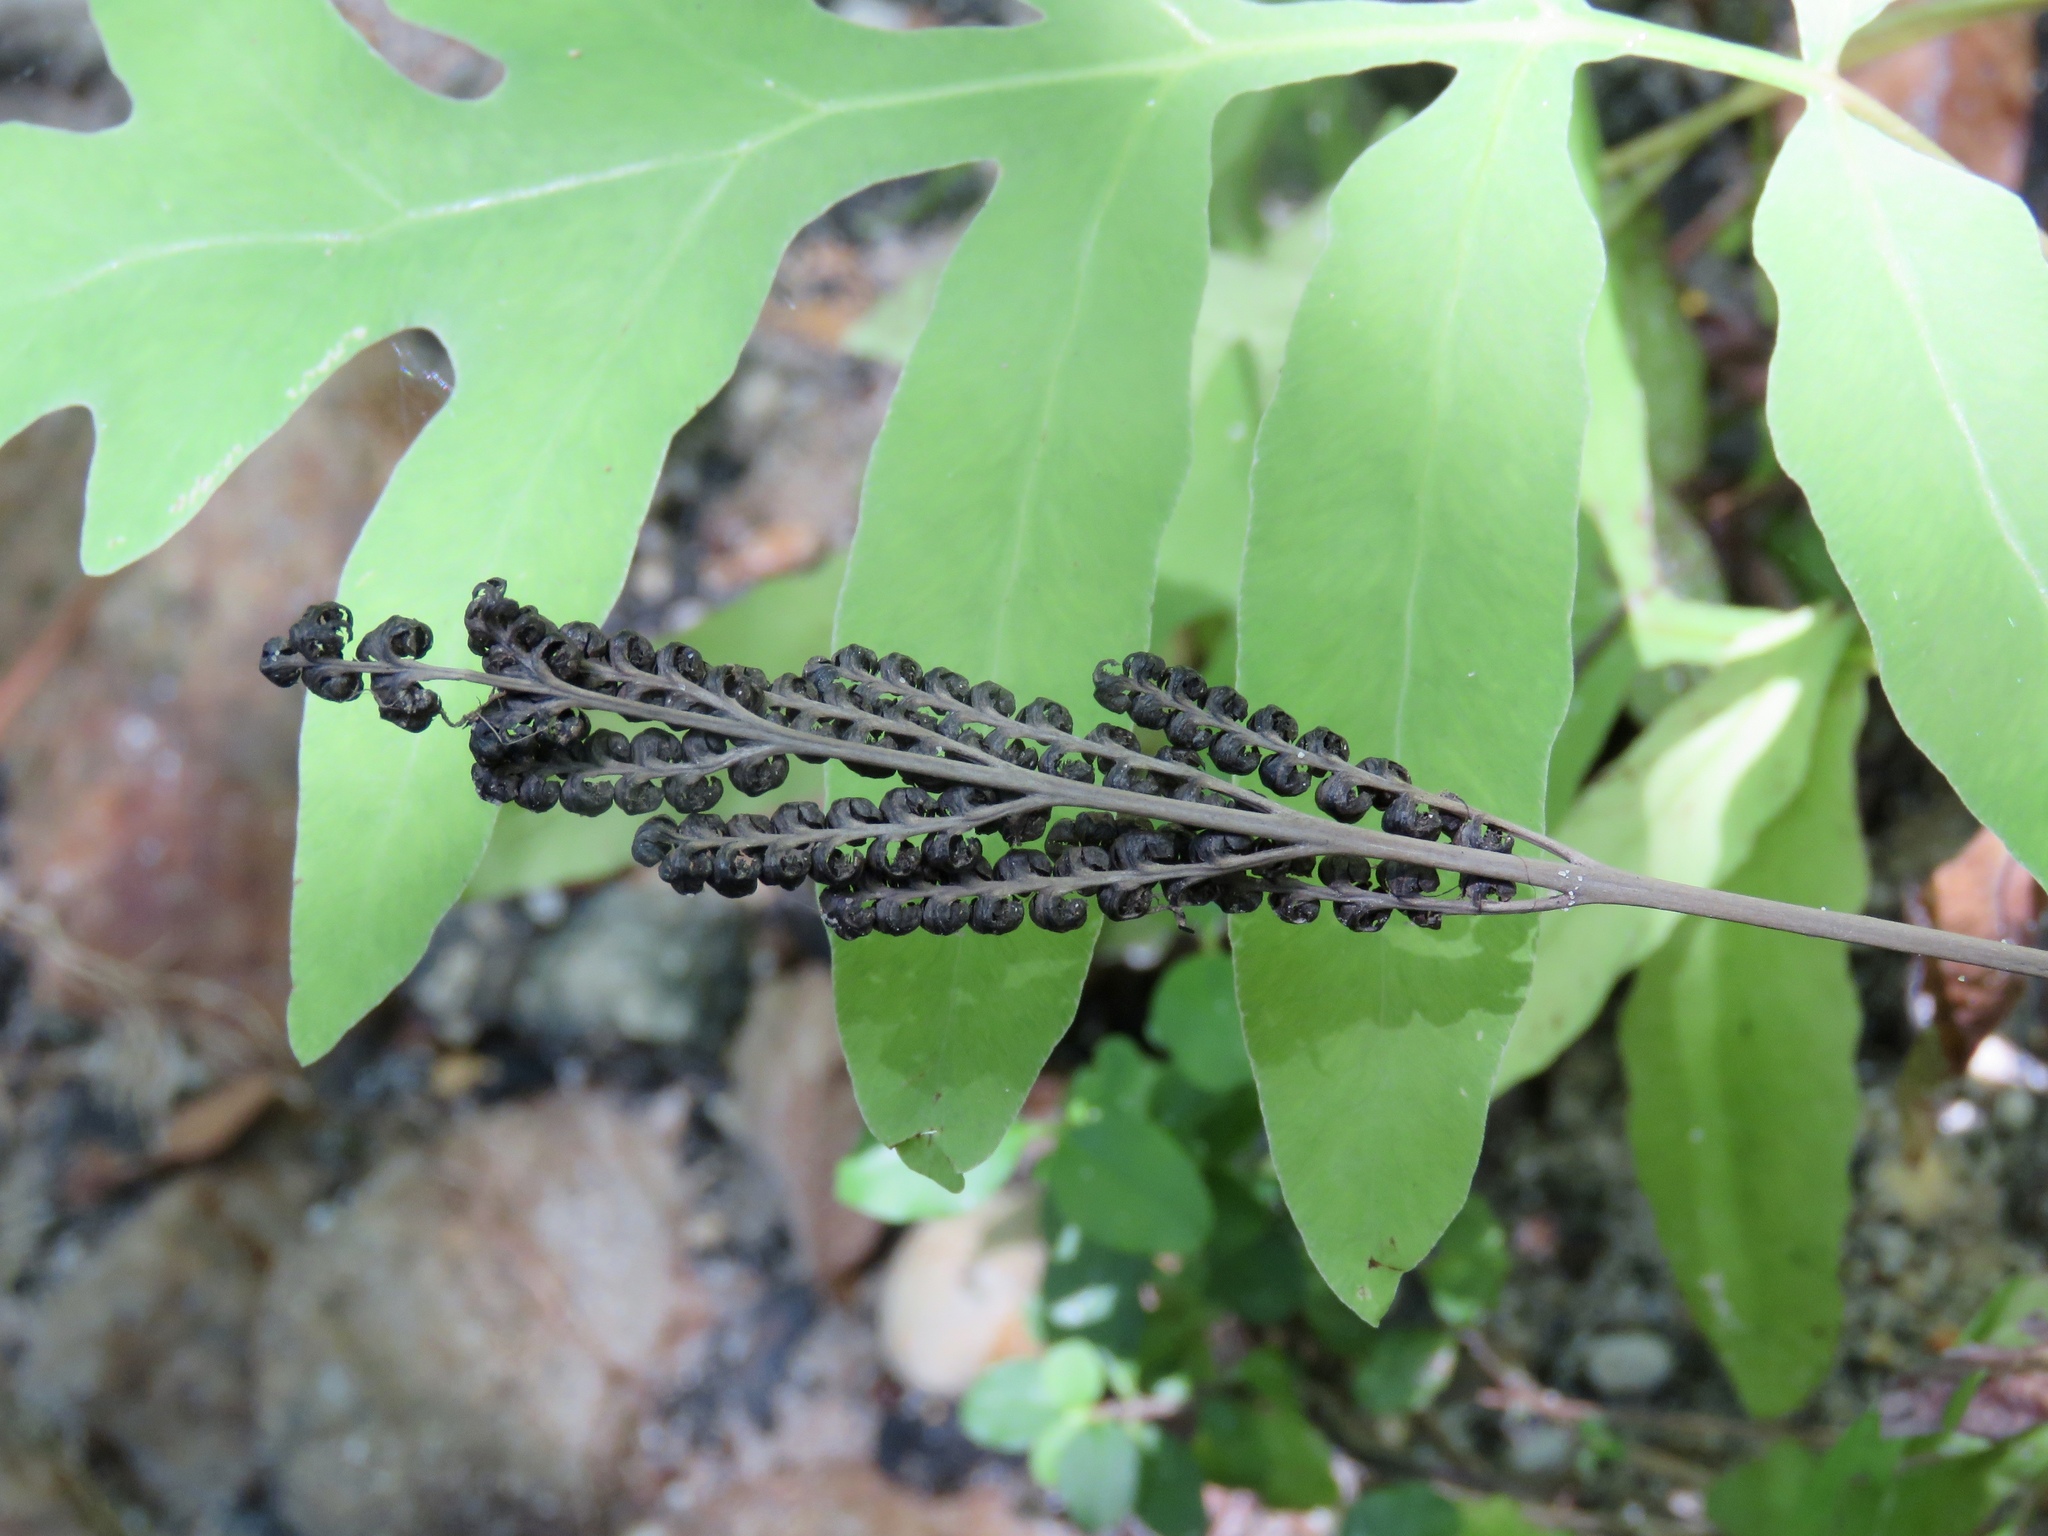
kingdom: Plantae
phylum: Tracheophyta
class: Polypodiopsida
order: Polypodiales
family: Onocleaceae
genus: Onoclea
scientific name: Onoclea sensibilis
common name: Sensitive fern
